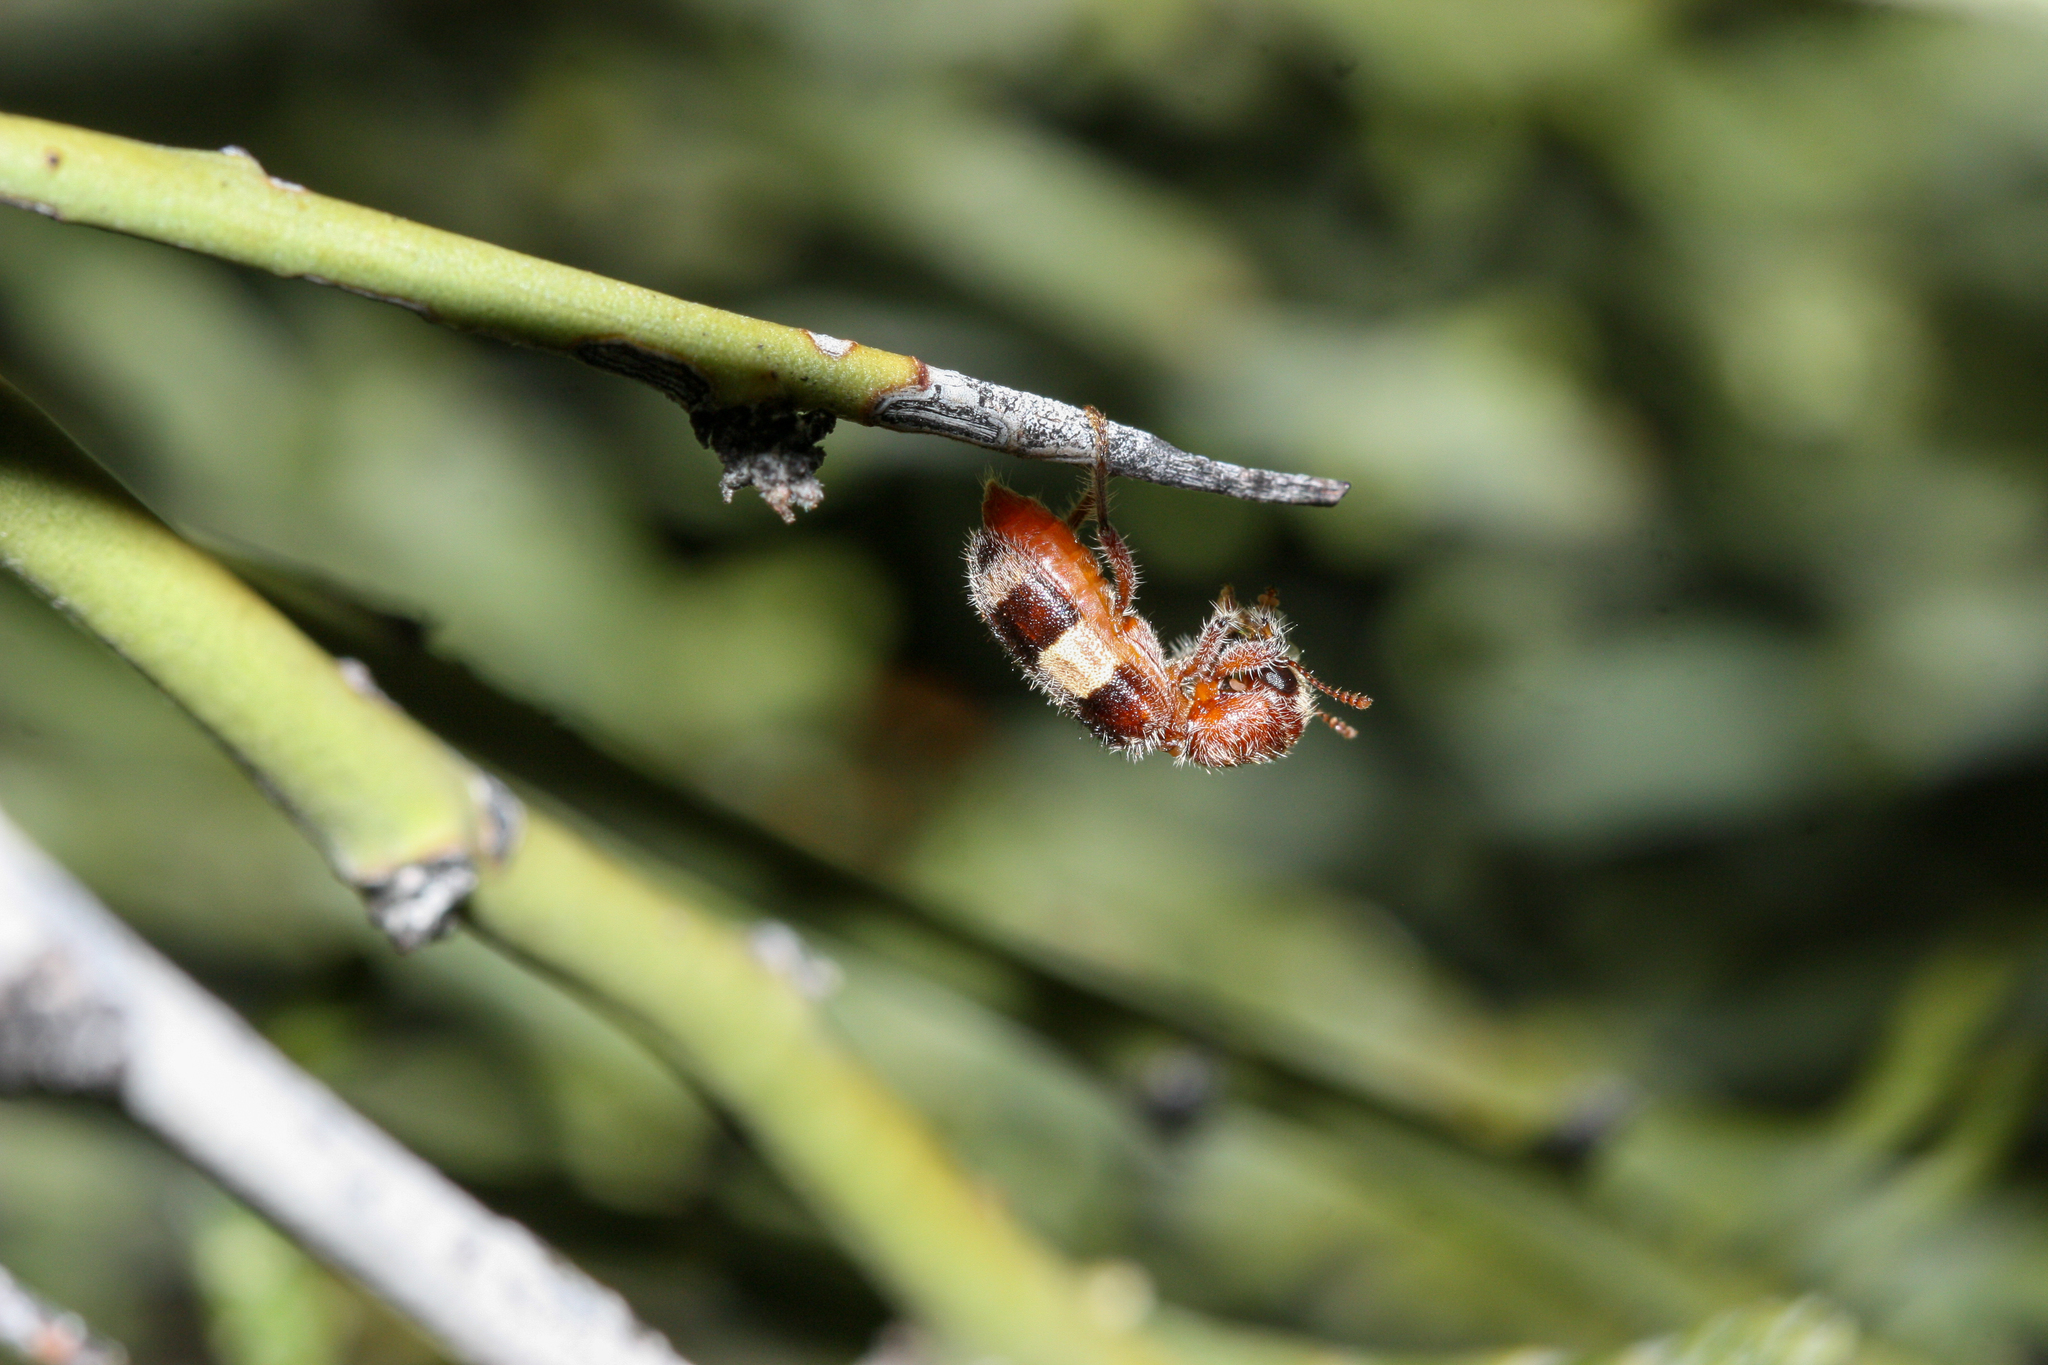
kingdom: Animalia
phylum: Arthropoda
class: Insecta
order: Coleoptera
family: Cleridae
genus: Enoclerus
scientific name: Enoclerus quadrisignatus
